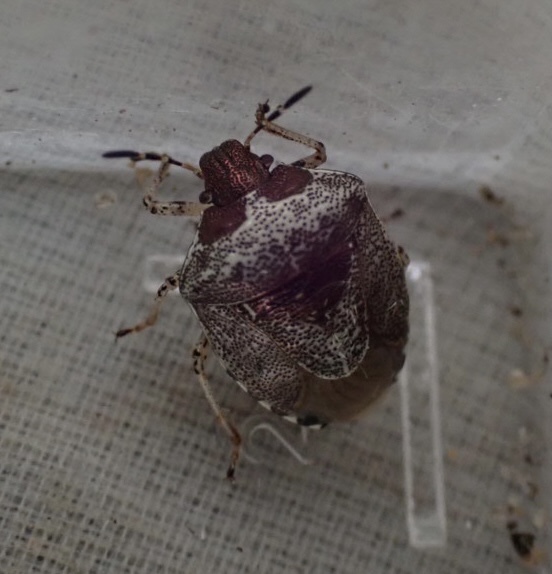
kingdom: Animalia
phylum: Arthropoda
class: Insecta
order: Hemiptera
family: Pentatomidae
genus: Eysarcoris
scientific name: Eysarcoris venustissimus
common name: Woundwort shieldbug
